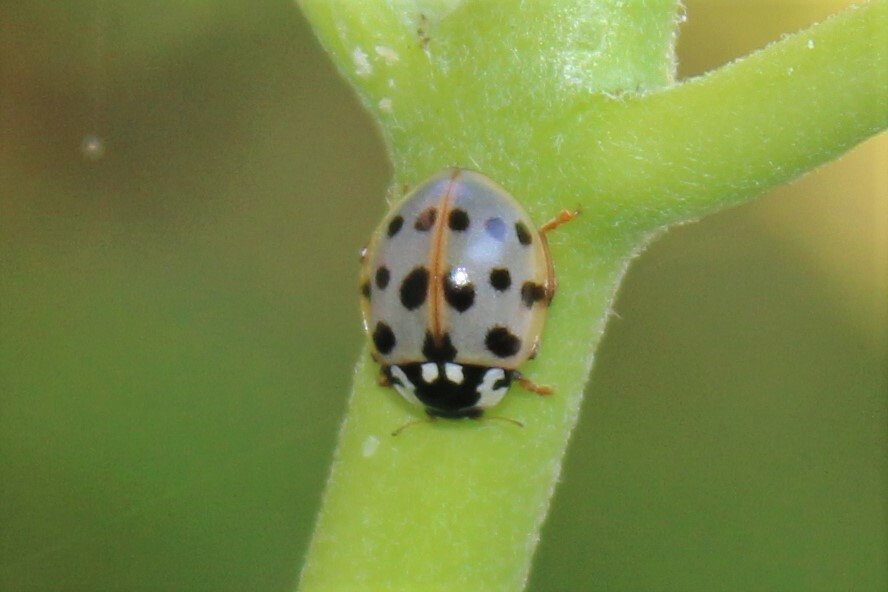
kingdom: Animalia
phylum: Arthropoda
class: Insecta
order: Coleoptera
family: Coccinellidae
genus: Anatis
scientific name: Anatis labiculata
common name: Fifteen-spotted lady beetle
